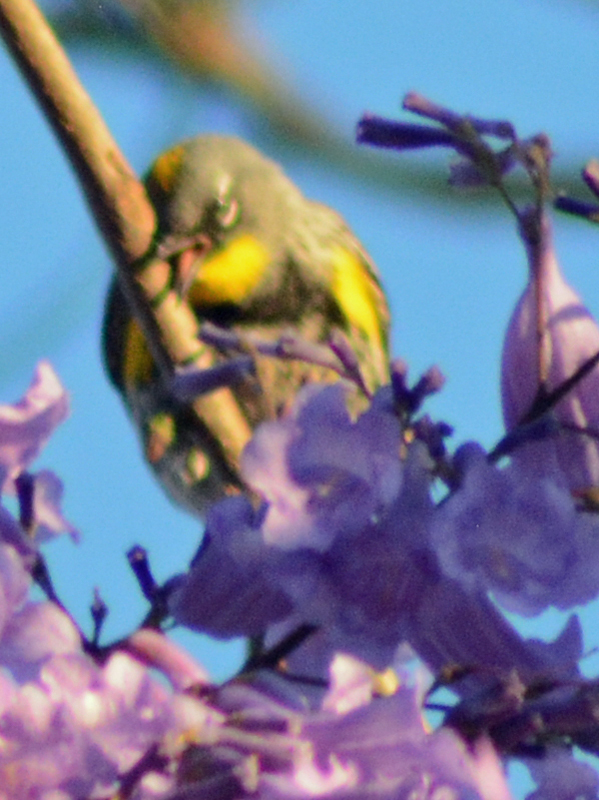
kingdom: Animalia
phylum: Chordata
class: Aves
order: Passeriformes
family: Parulidae
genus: Setophaga
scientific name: Setophaga auduboni
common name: Audubon's warbler
